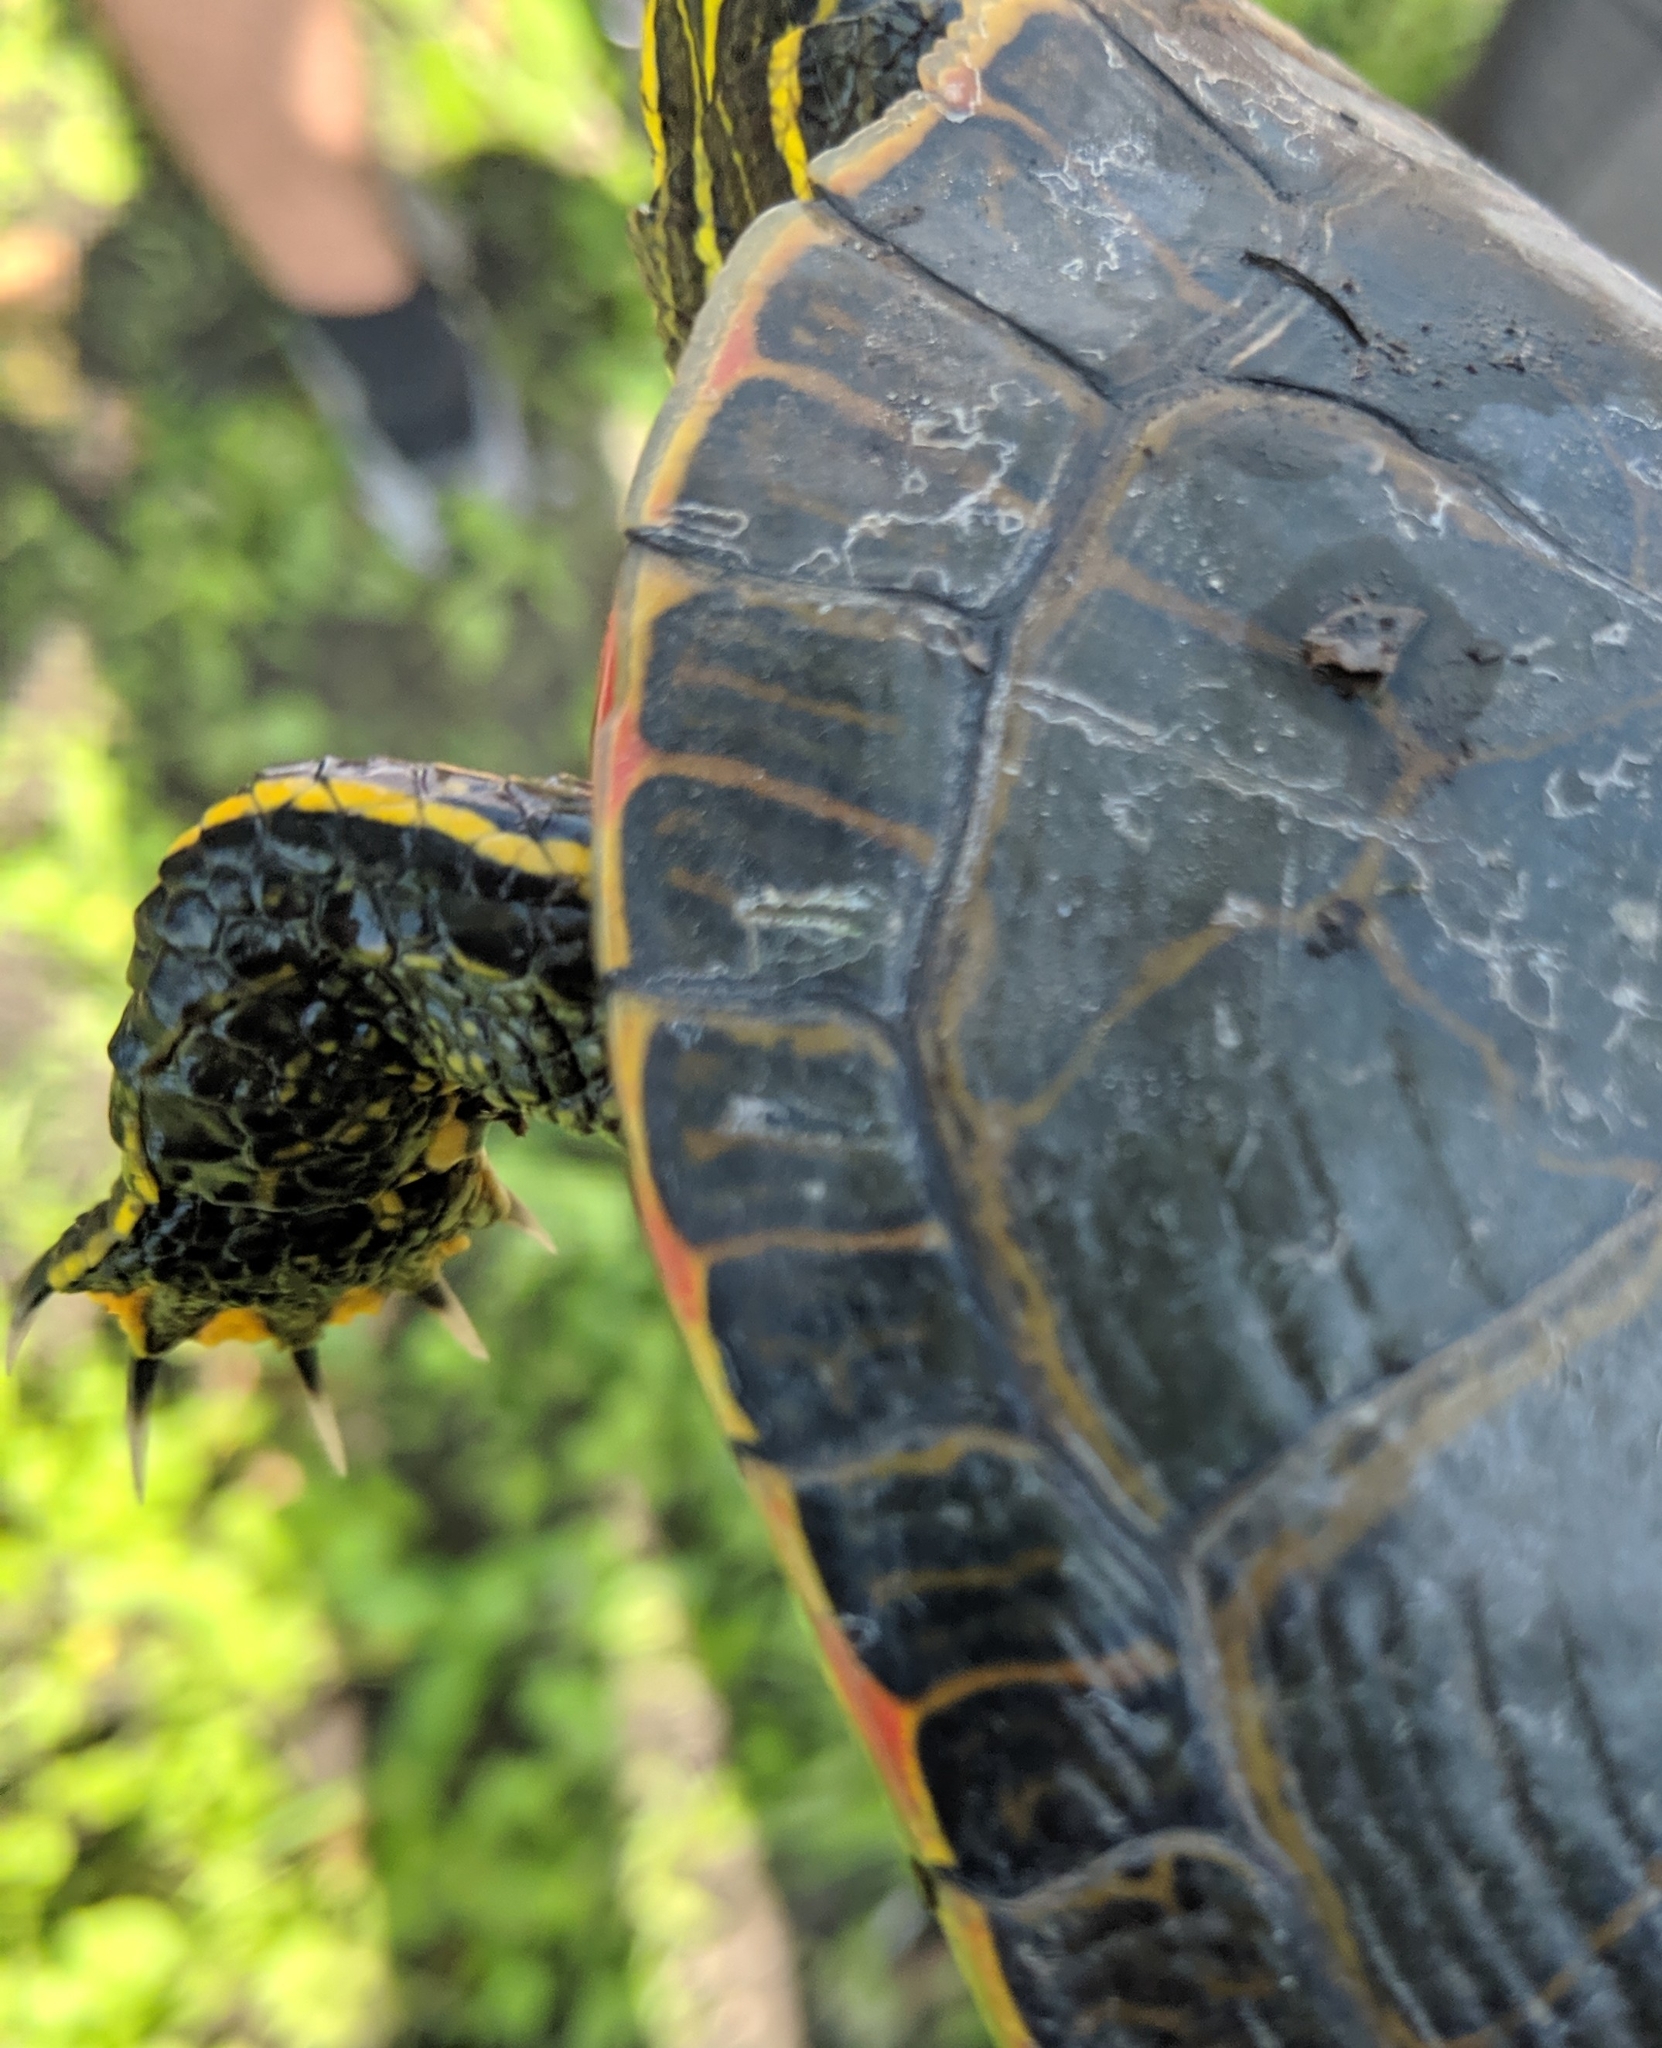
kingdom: Animalia
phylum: Chordata
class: Testudines
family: Emydidae
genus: Chrysemys
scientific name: Chrysemys picta
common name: Painted turtle
